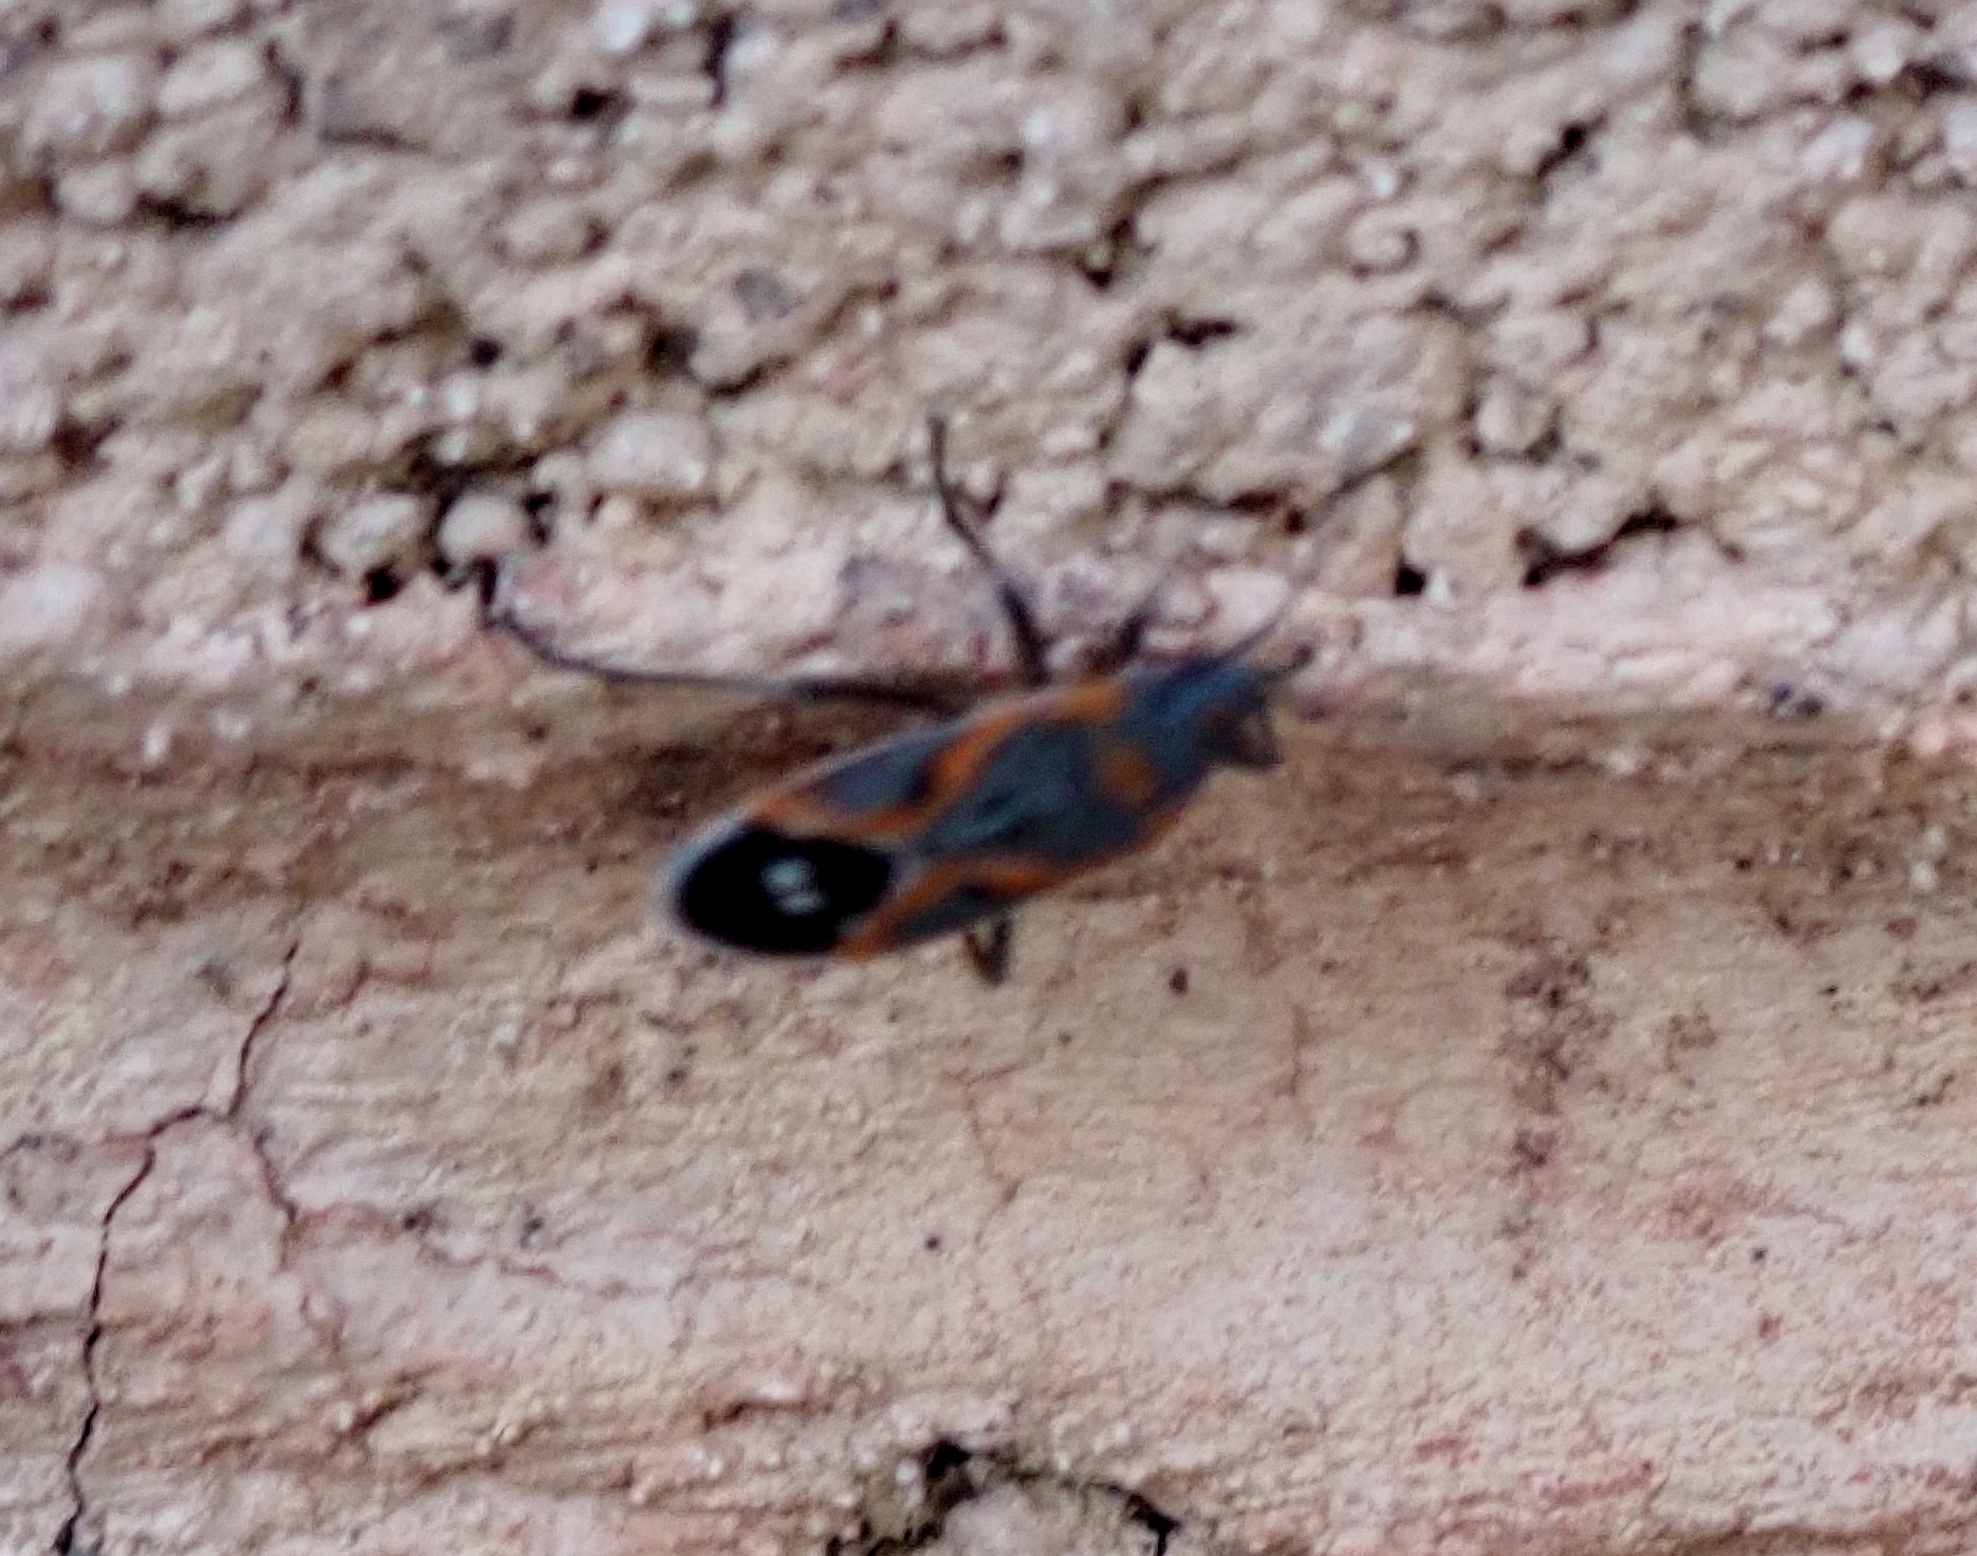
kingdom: Animalia
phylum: Arthropoda
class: Insecta
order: Hemiptera
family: Lygaeidae
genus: Lygaeus
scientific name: Lygaeus kalmii
